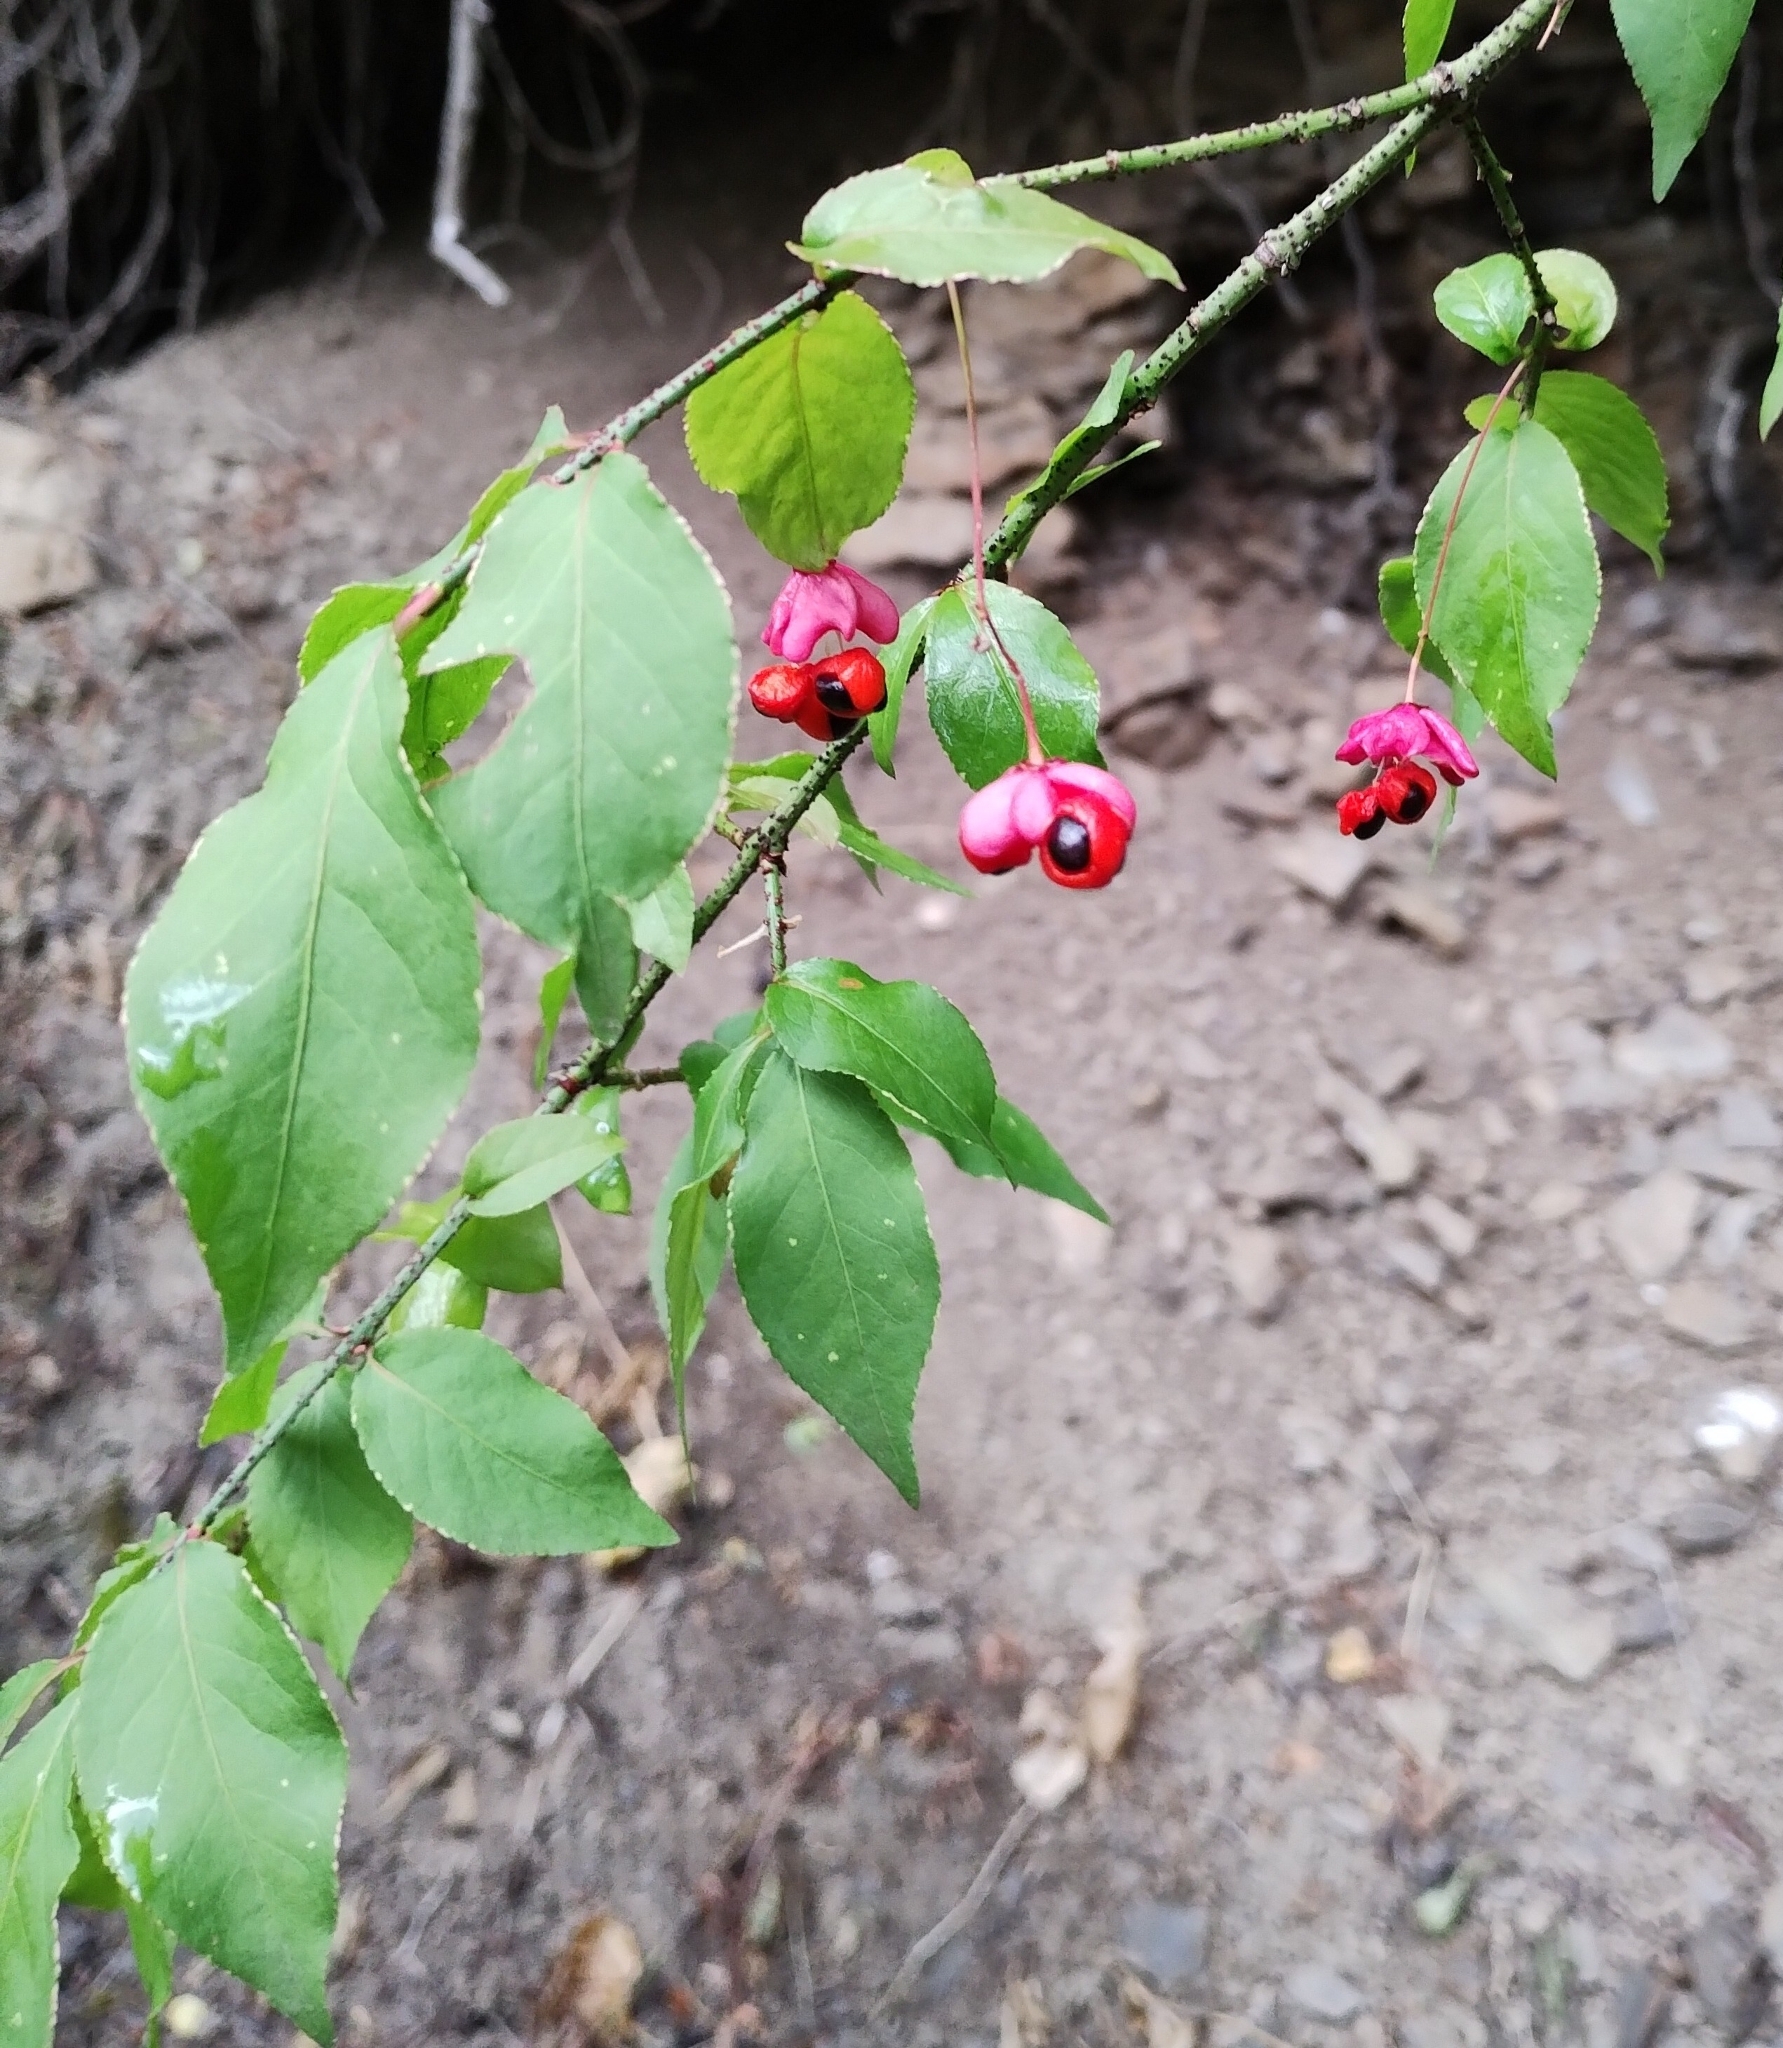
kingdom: Plantae
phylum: Tracheophyta
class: Magnoliopsida
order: Celastrales
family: Celastraceae
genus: Euonymus
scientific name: Euonymus verrucosus
